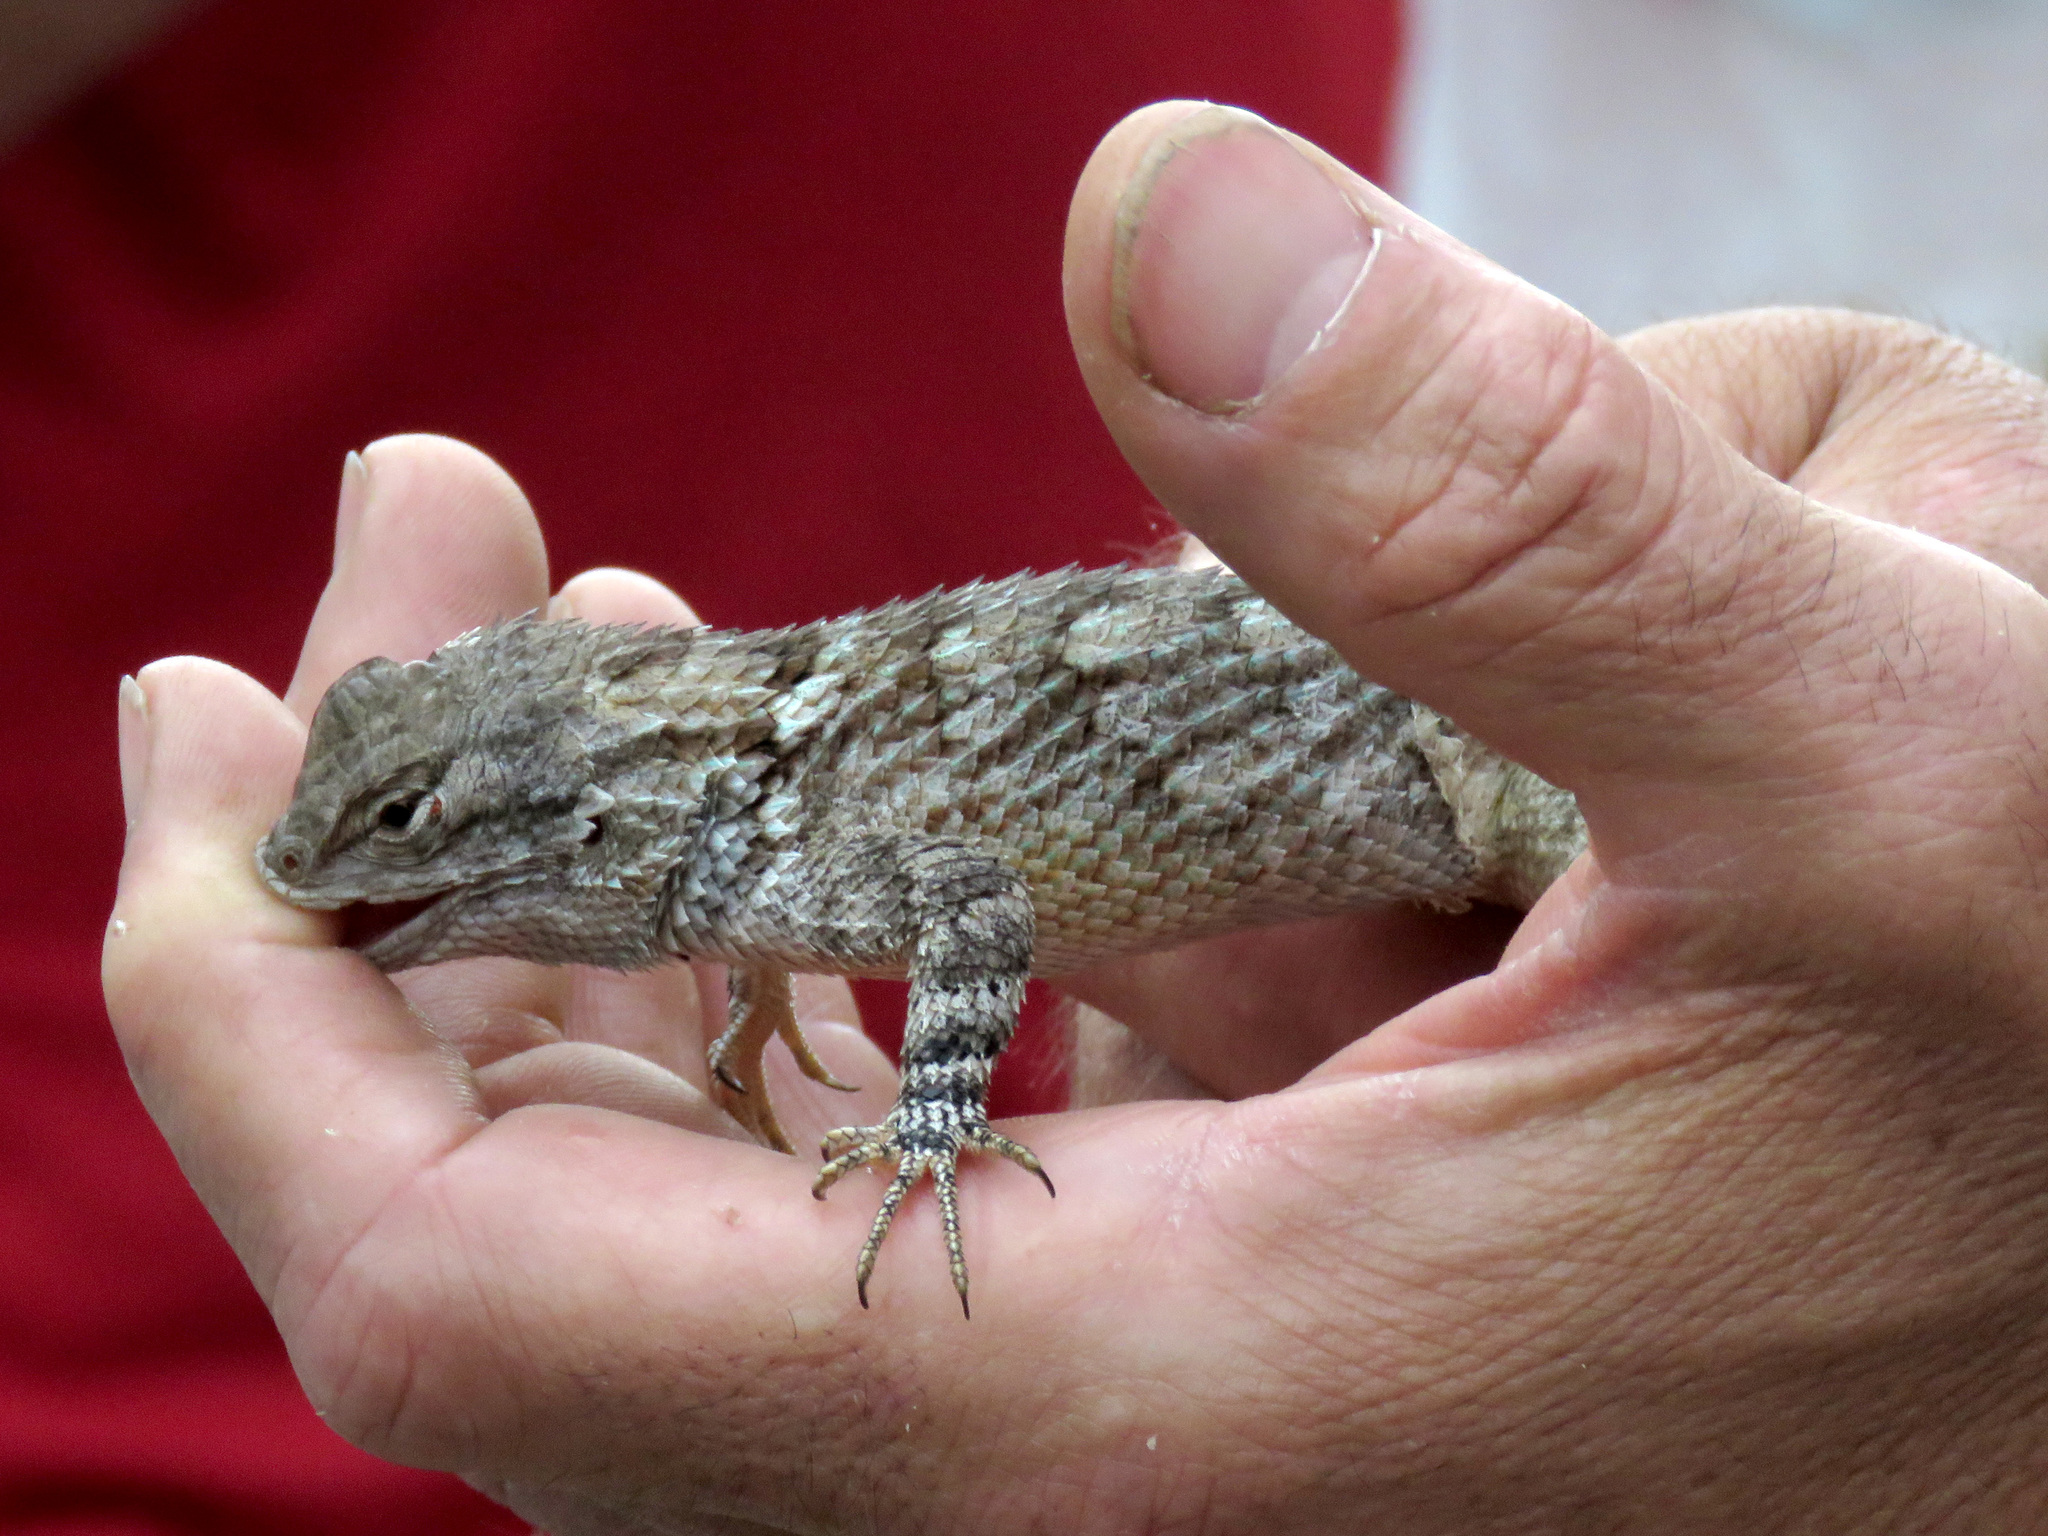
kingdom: Animalia
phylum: Chordata
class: Squamata
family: Phrynosomatidae
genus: Sceloporus
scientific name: Sceloporus clarkii
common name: Clark's spiny lizard
